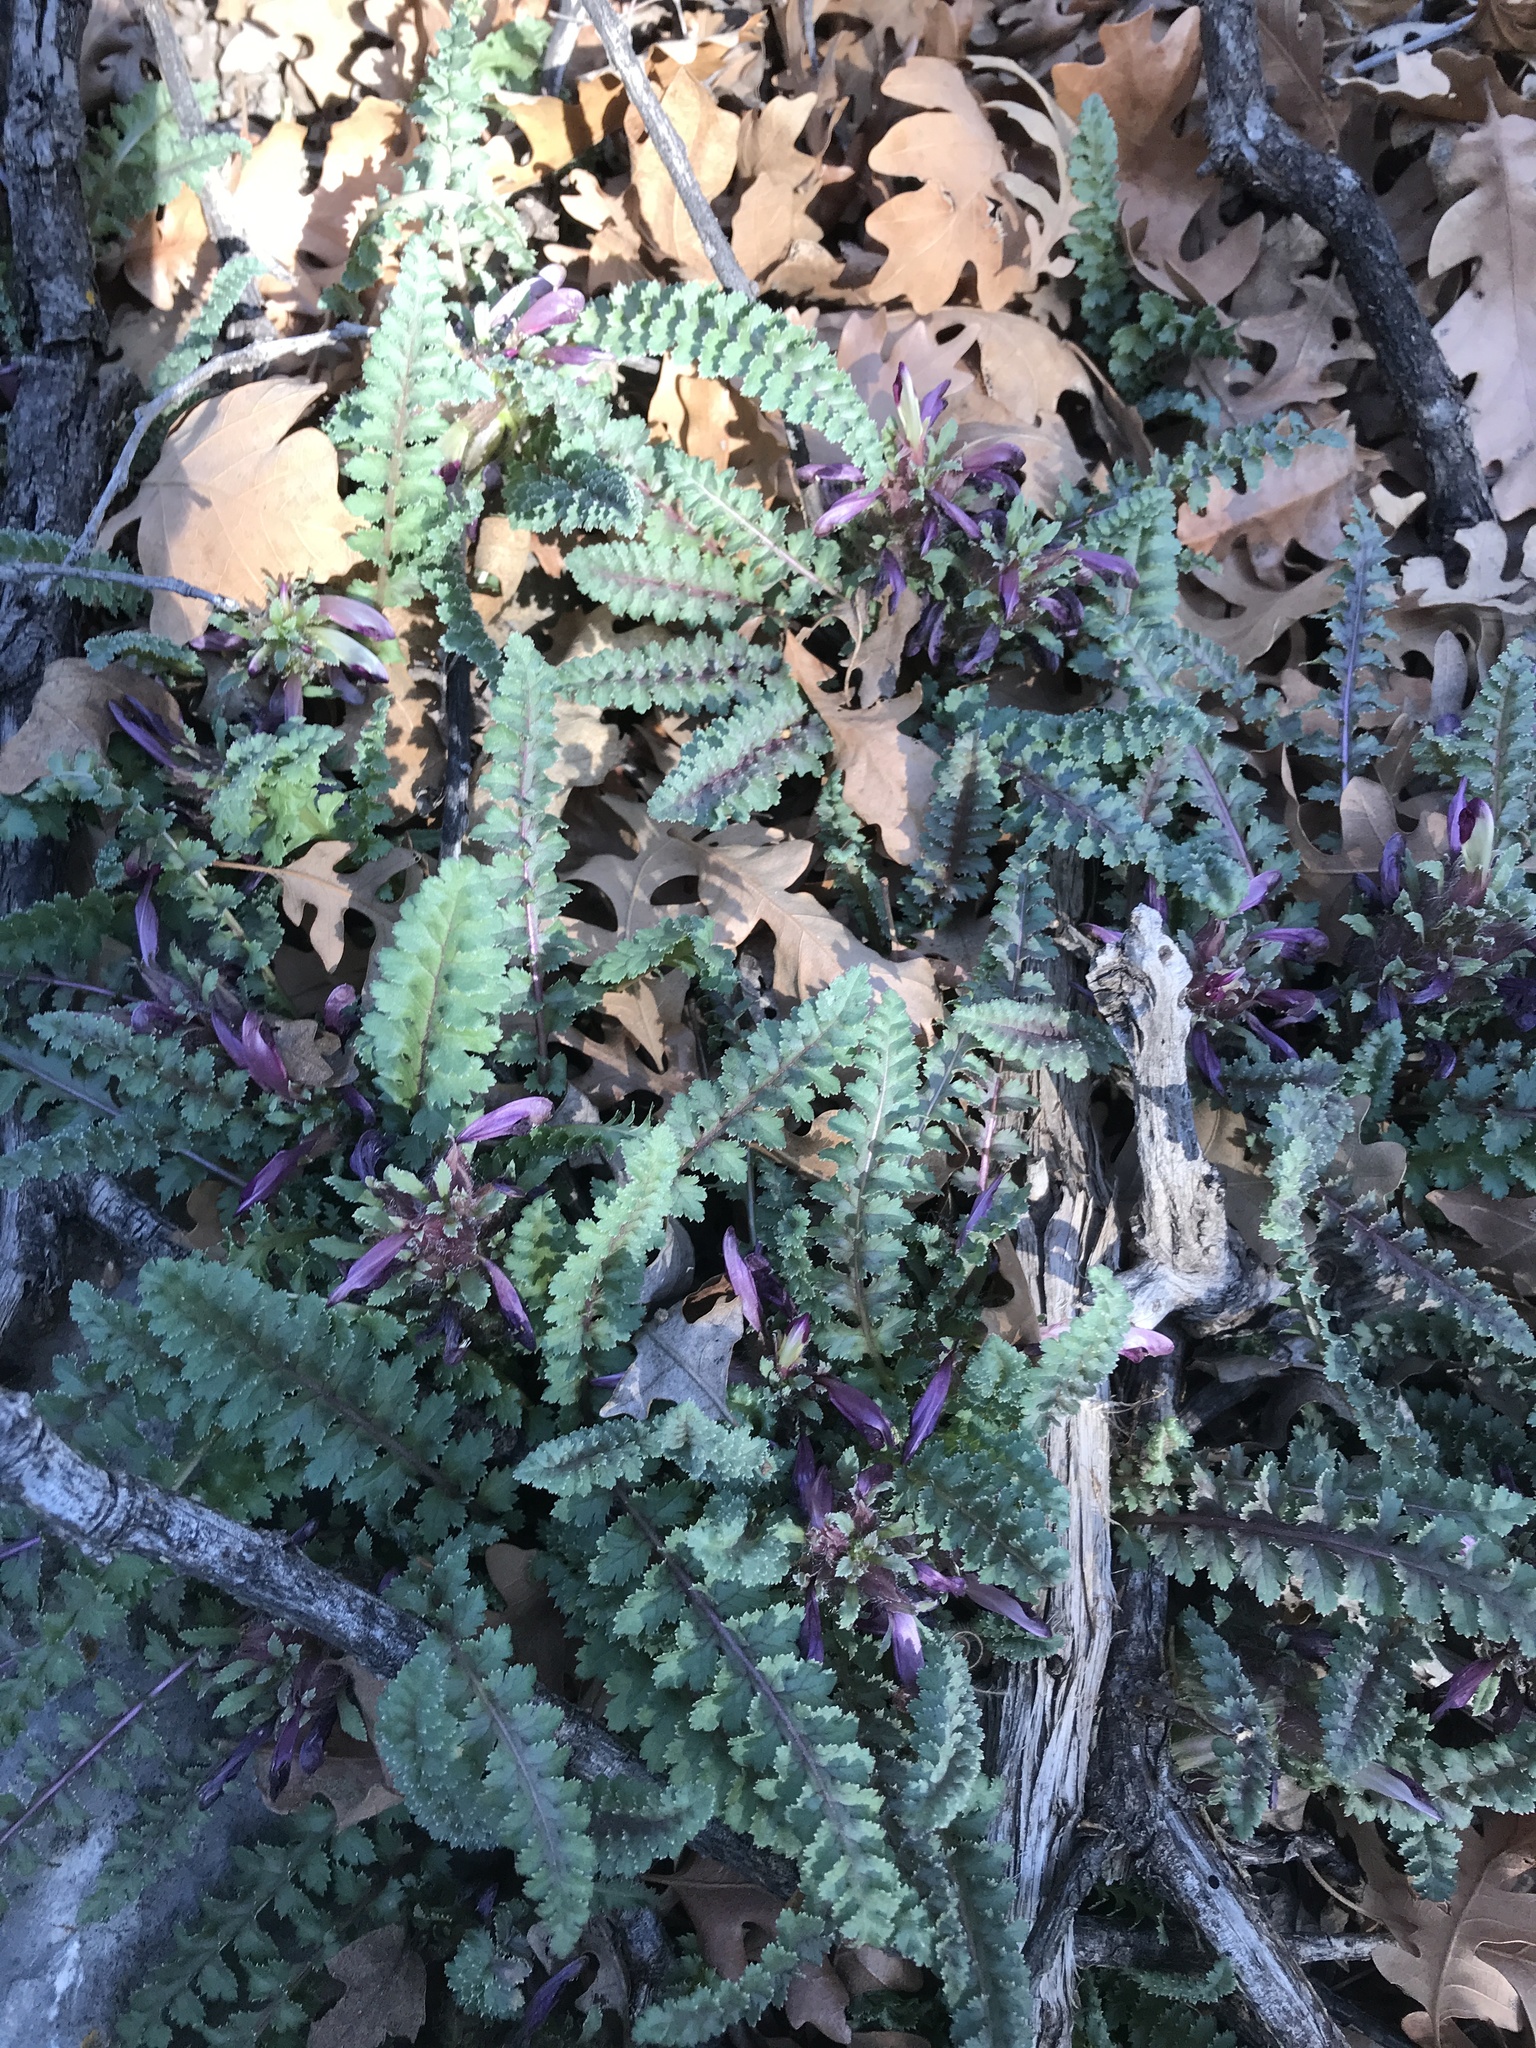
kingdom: Plantae
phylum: Tracheophyta
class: Magnoliopsida
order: Lamiales
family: Orobanchaceae
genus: Pedicularis
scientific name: Pedicularis centranthera
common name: Dwarf lousewort
